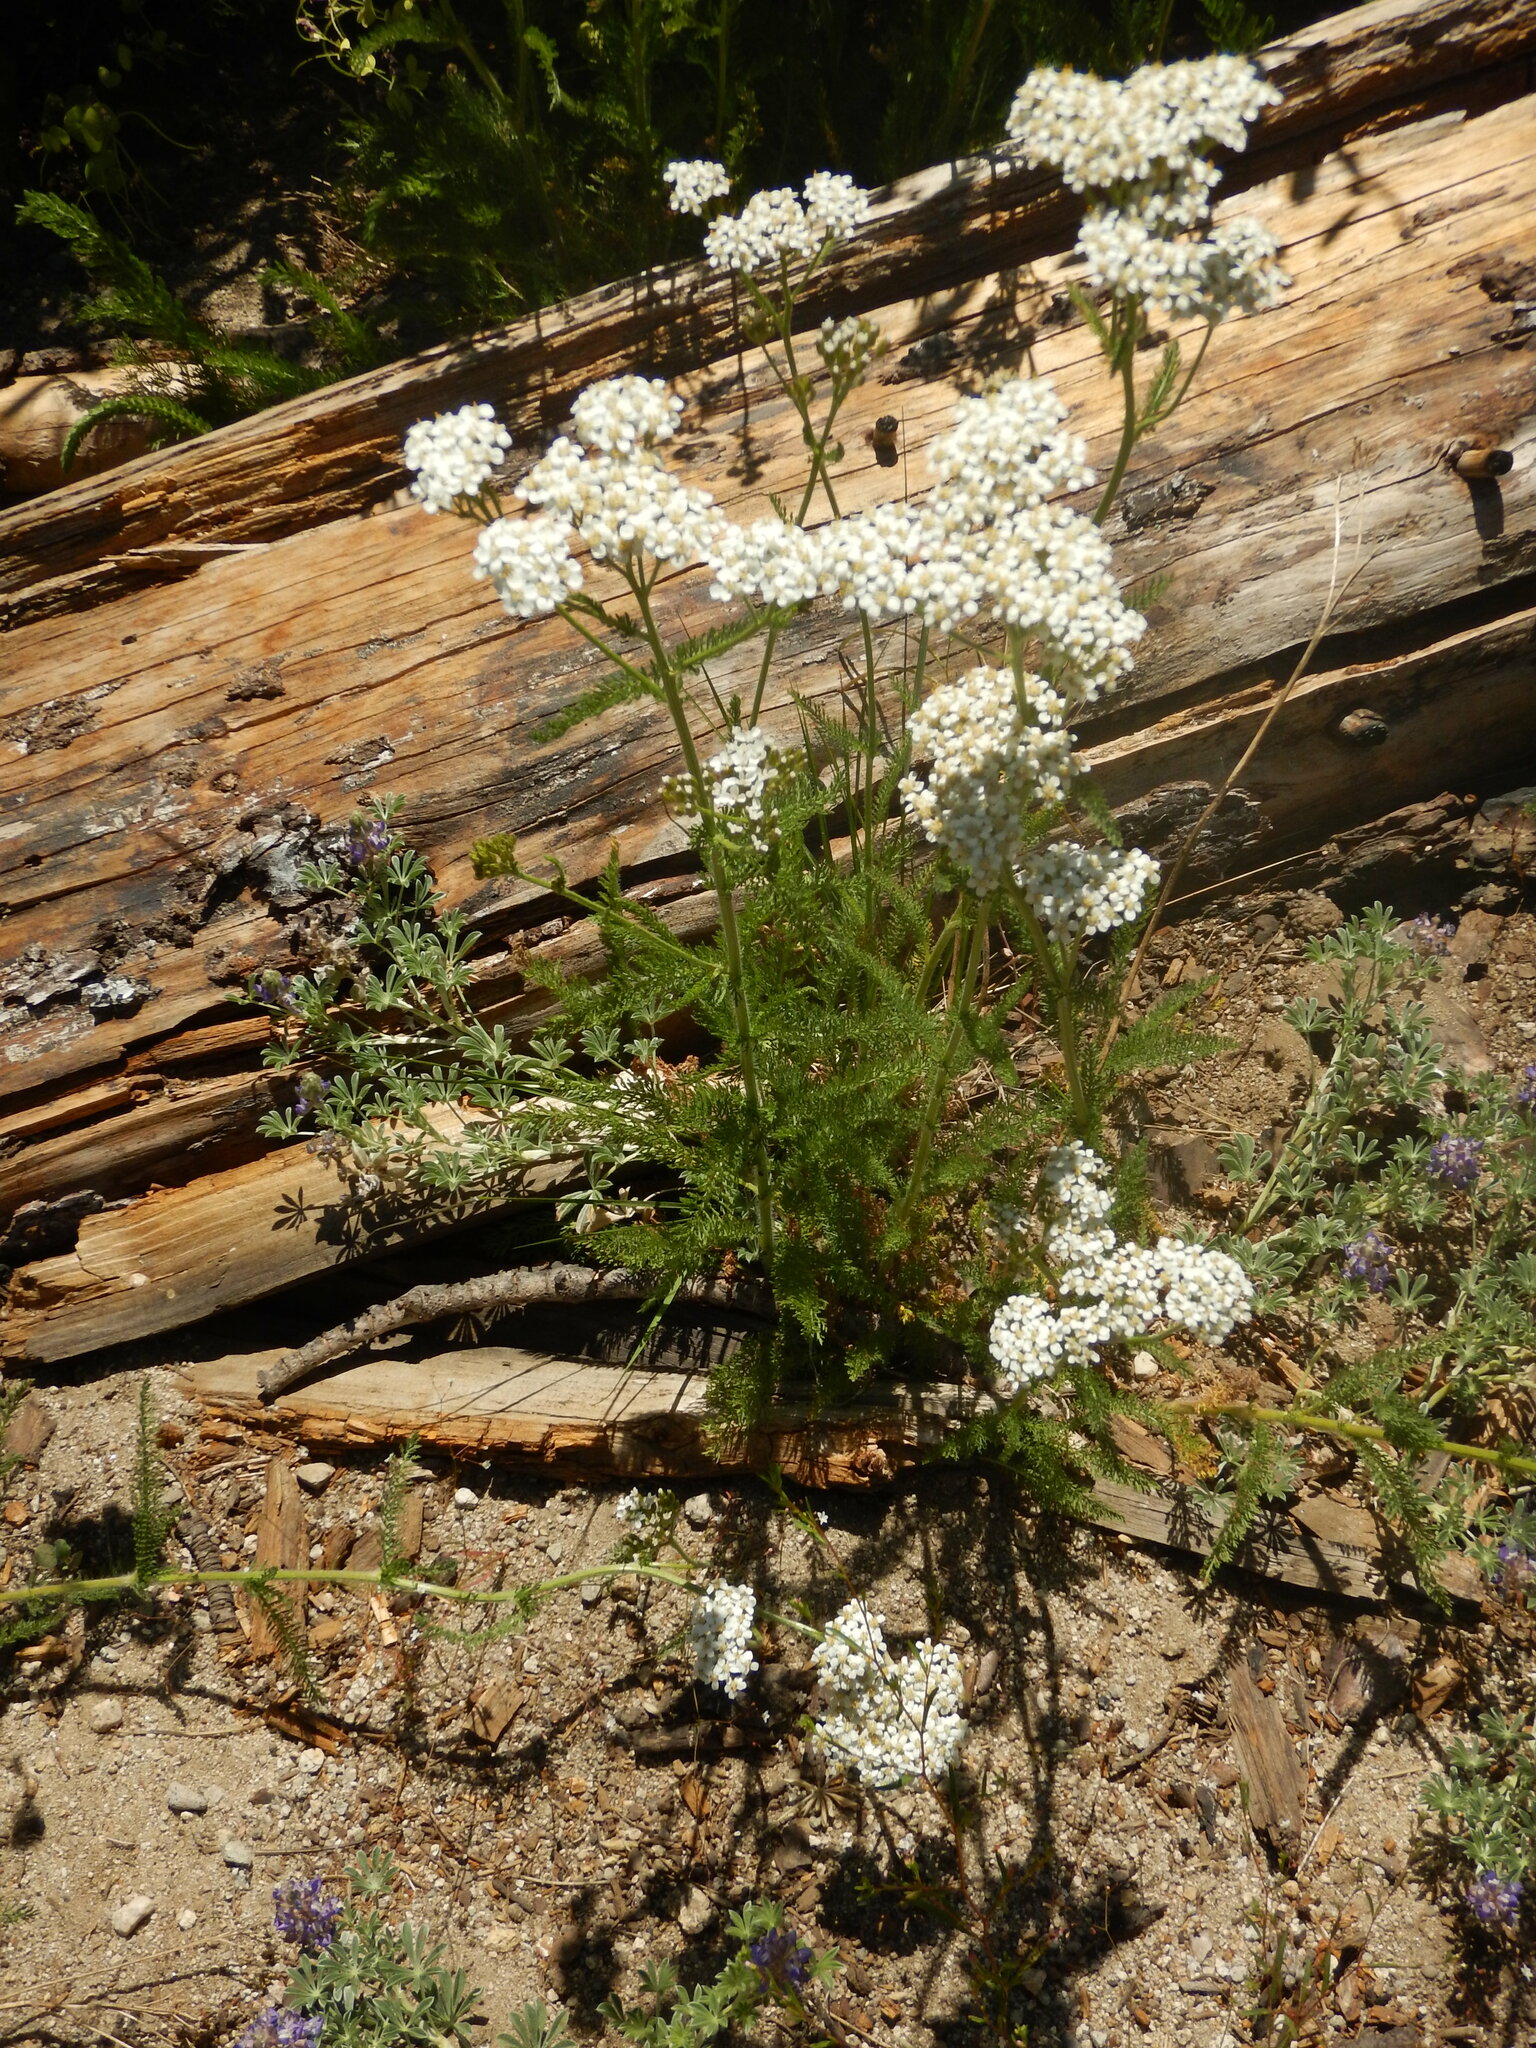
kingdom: Plantae
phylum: Tracheophyta
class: Magnoliopsida
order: Asterales
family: Asteraceae
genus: Achillea
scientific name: Achillea millefolium
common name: Yarrow
